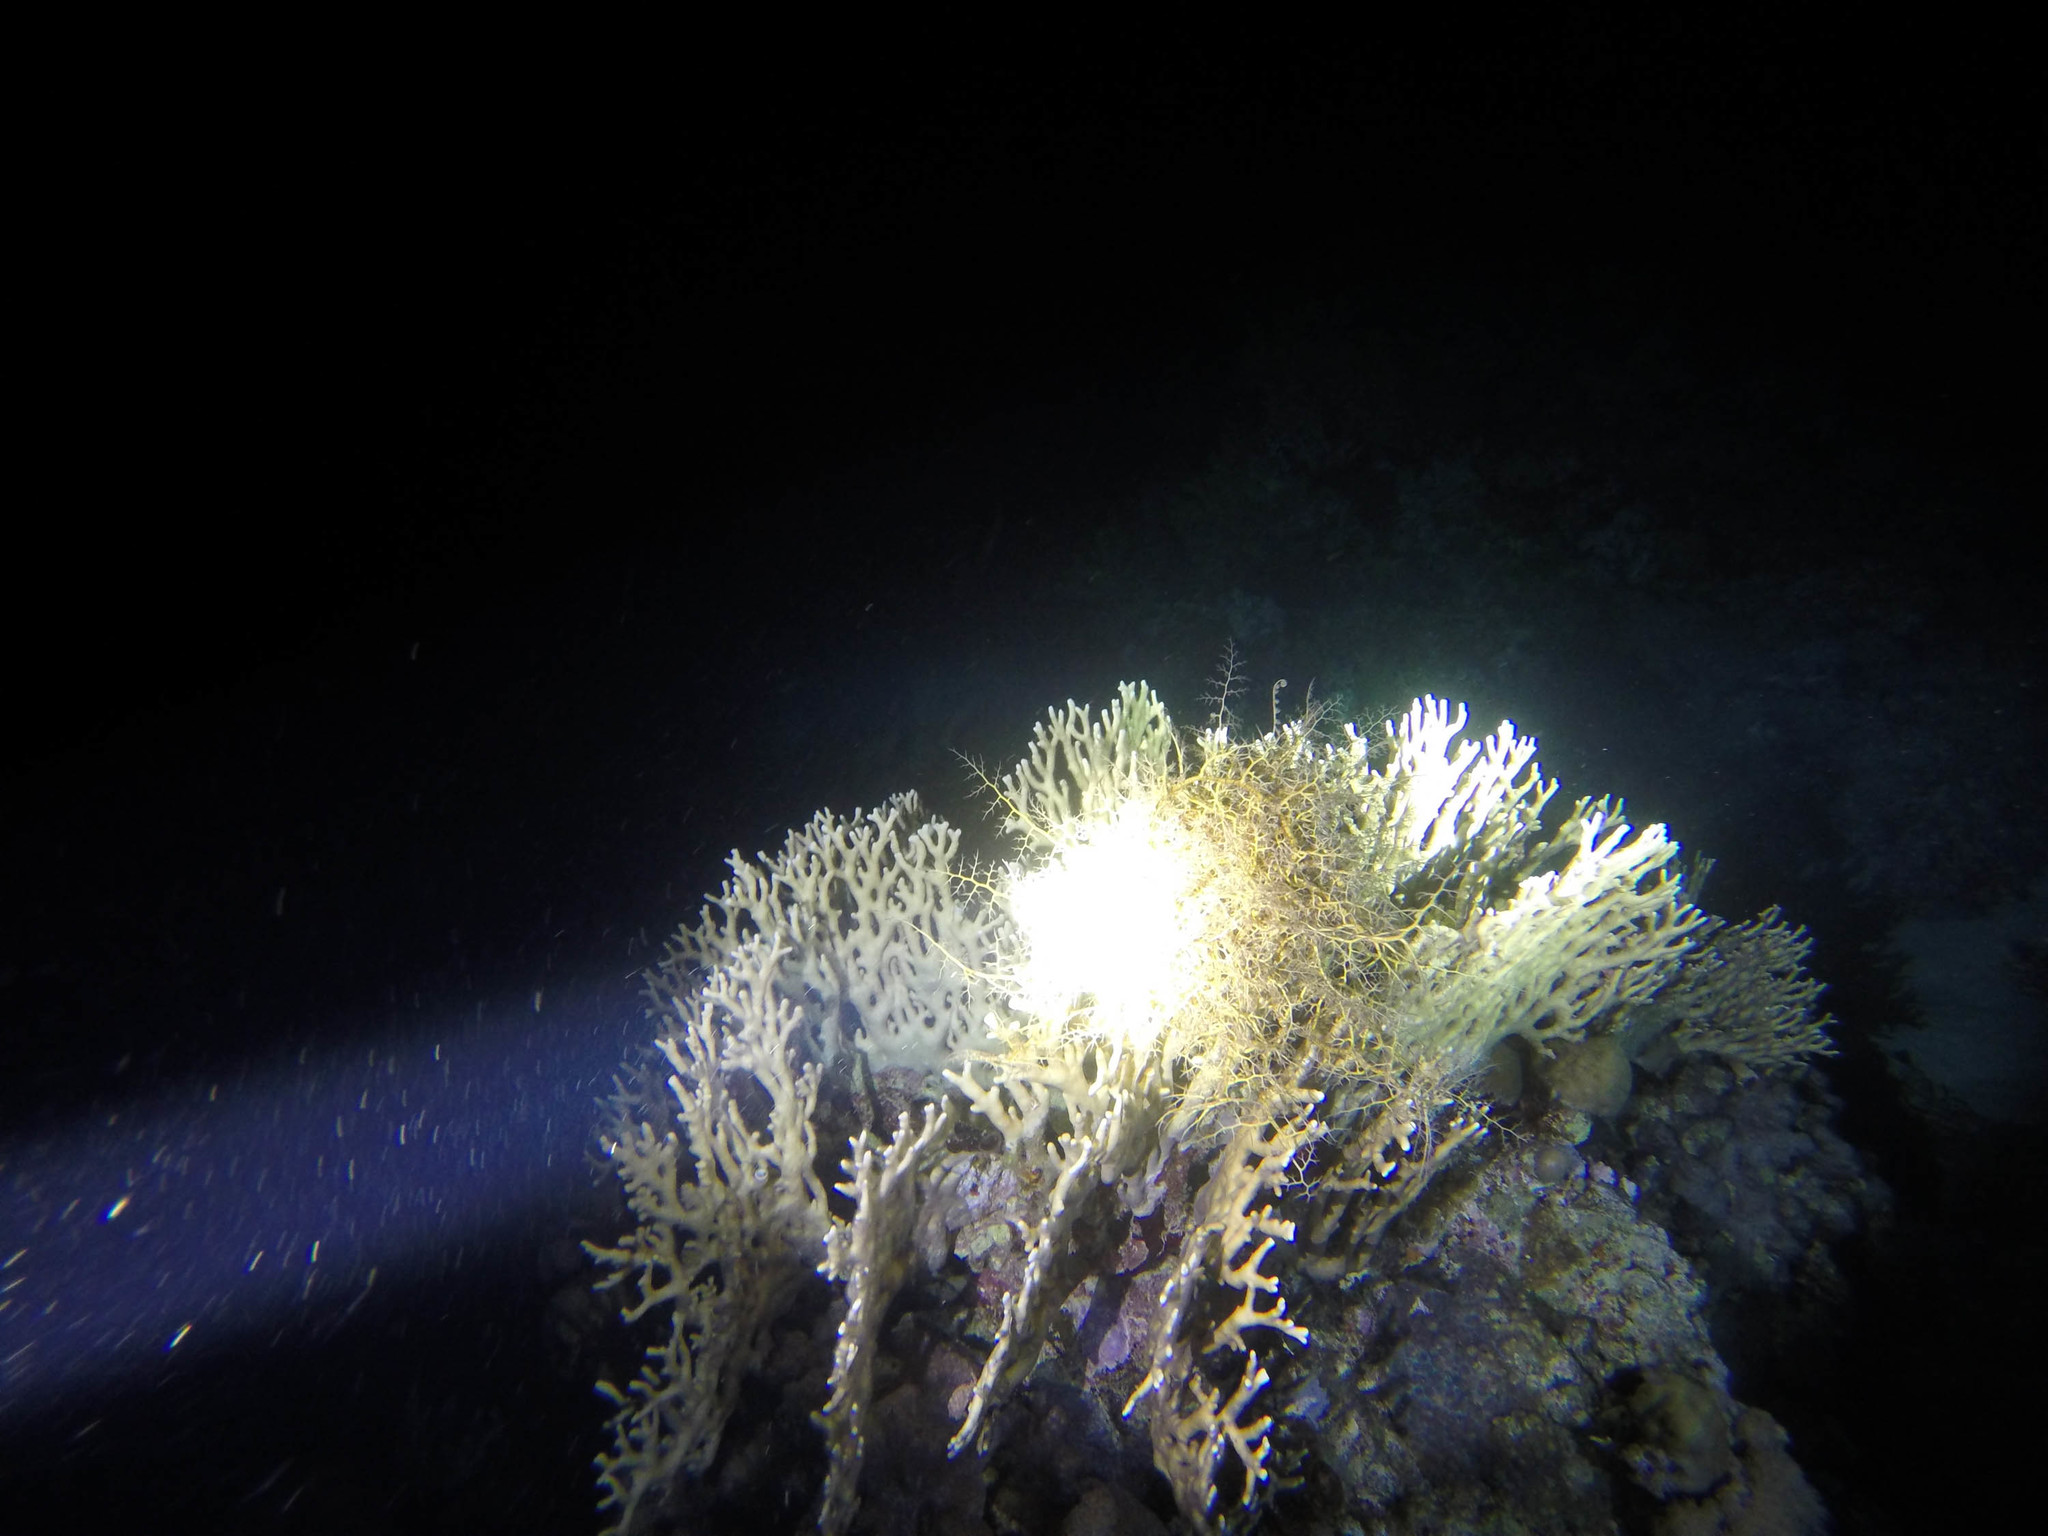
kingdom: Animalia
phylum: Cnidaria
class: Hydrozoa
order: Anthoathecata
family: Milleporidae
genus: Millepora
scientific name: Millepora dichotoma
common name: Ramified fire coral
